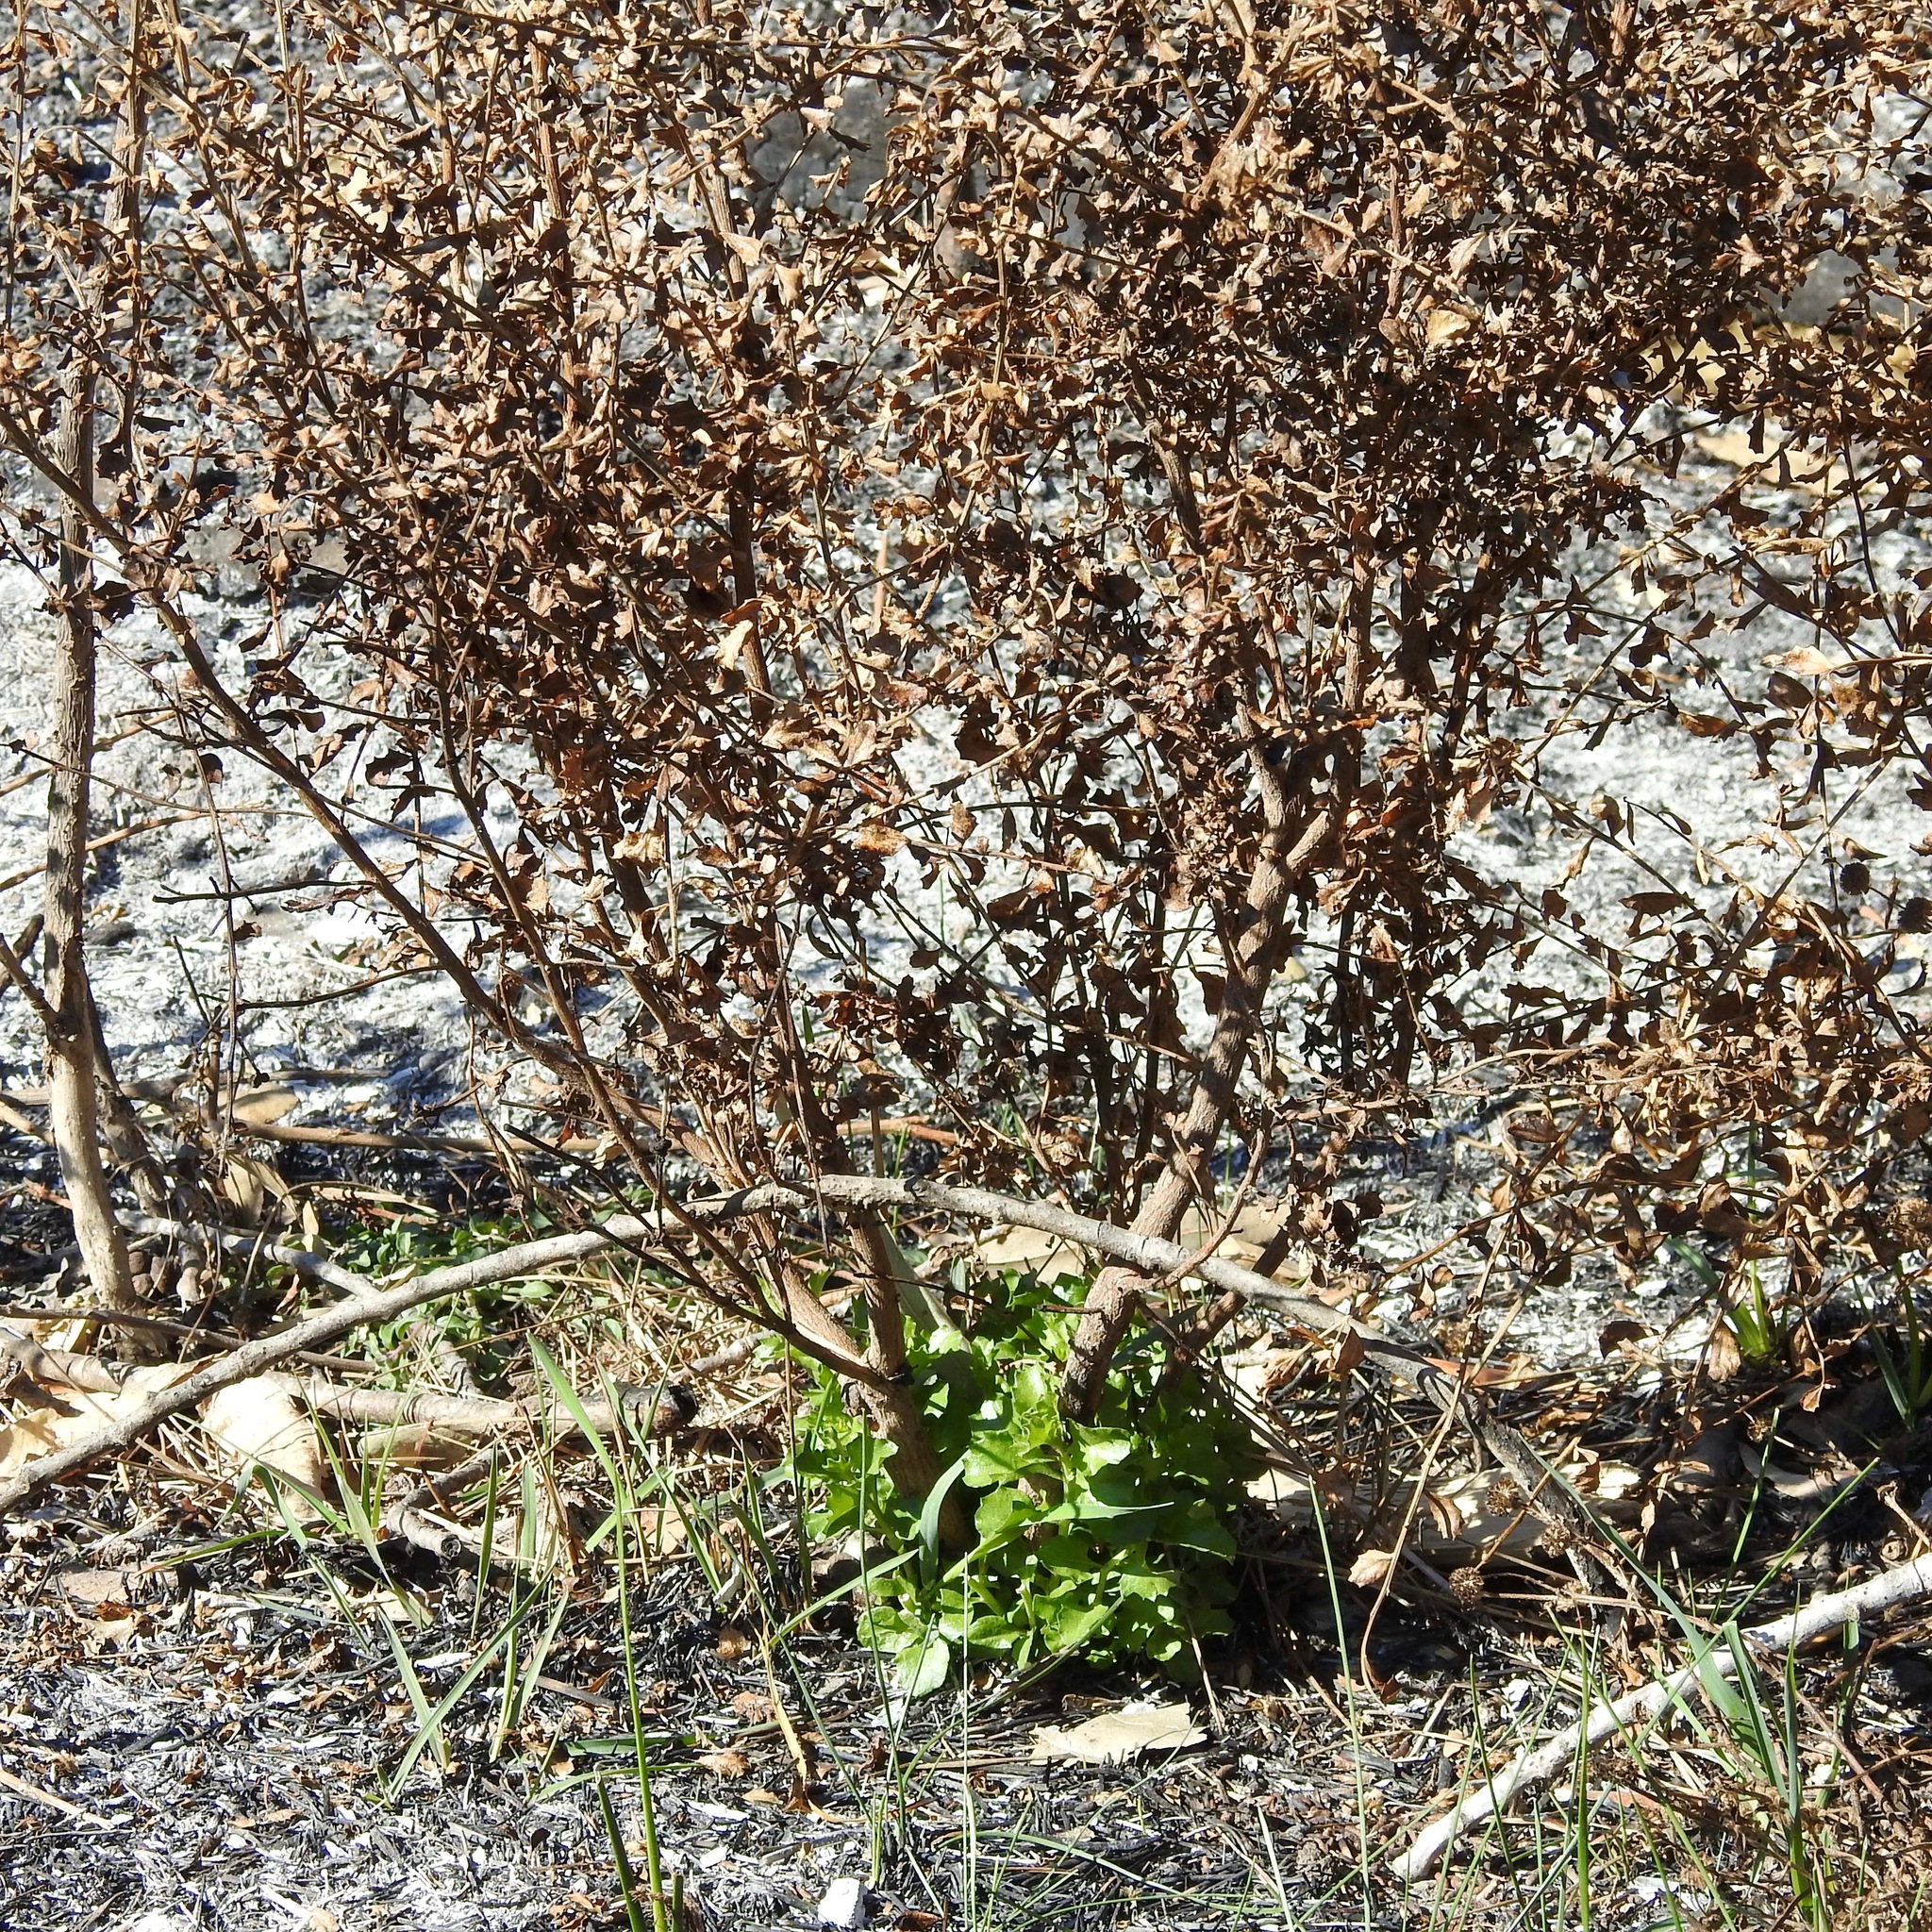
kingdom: Plantae
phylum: Tracheophyta
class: Magnoliopsida
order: Asterales
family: Asteraceae
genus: Baccharis
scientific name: Baccharis pilularis
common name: Coyotebrush
